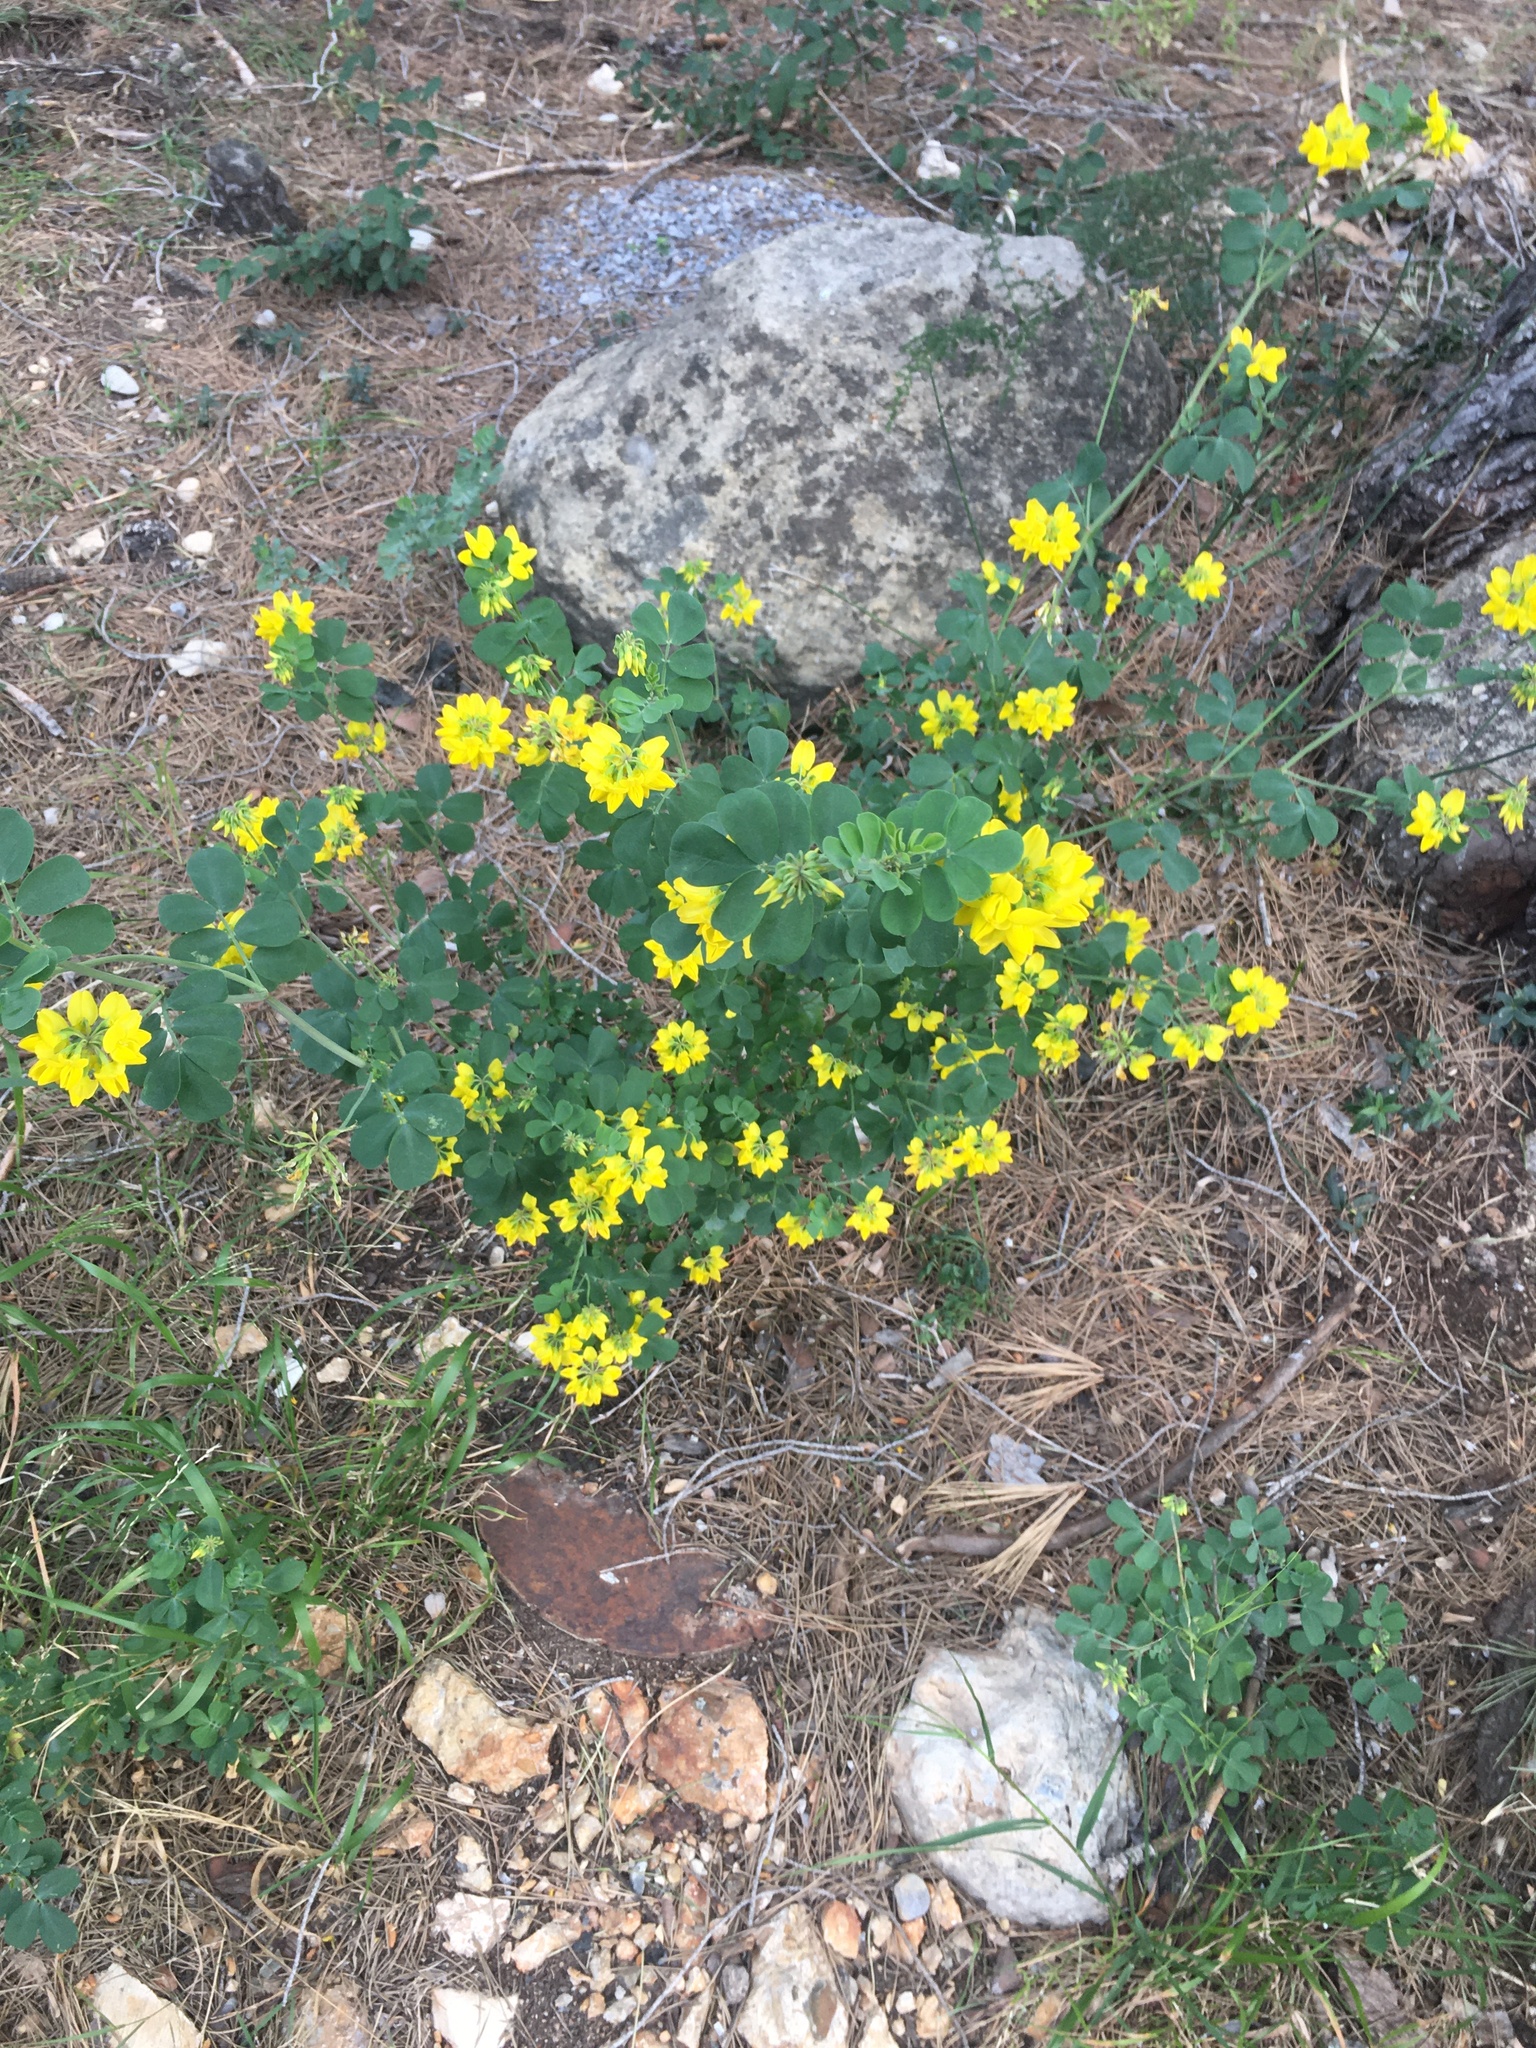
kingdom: Plantae
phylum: Tracheophyta
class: Magnoliopsida
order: Fabales
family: Fabaceae
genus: Coronilla
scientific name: Coronilla valentina
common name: Shrubby scorpion-vetch
